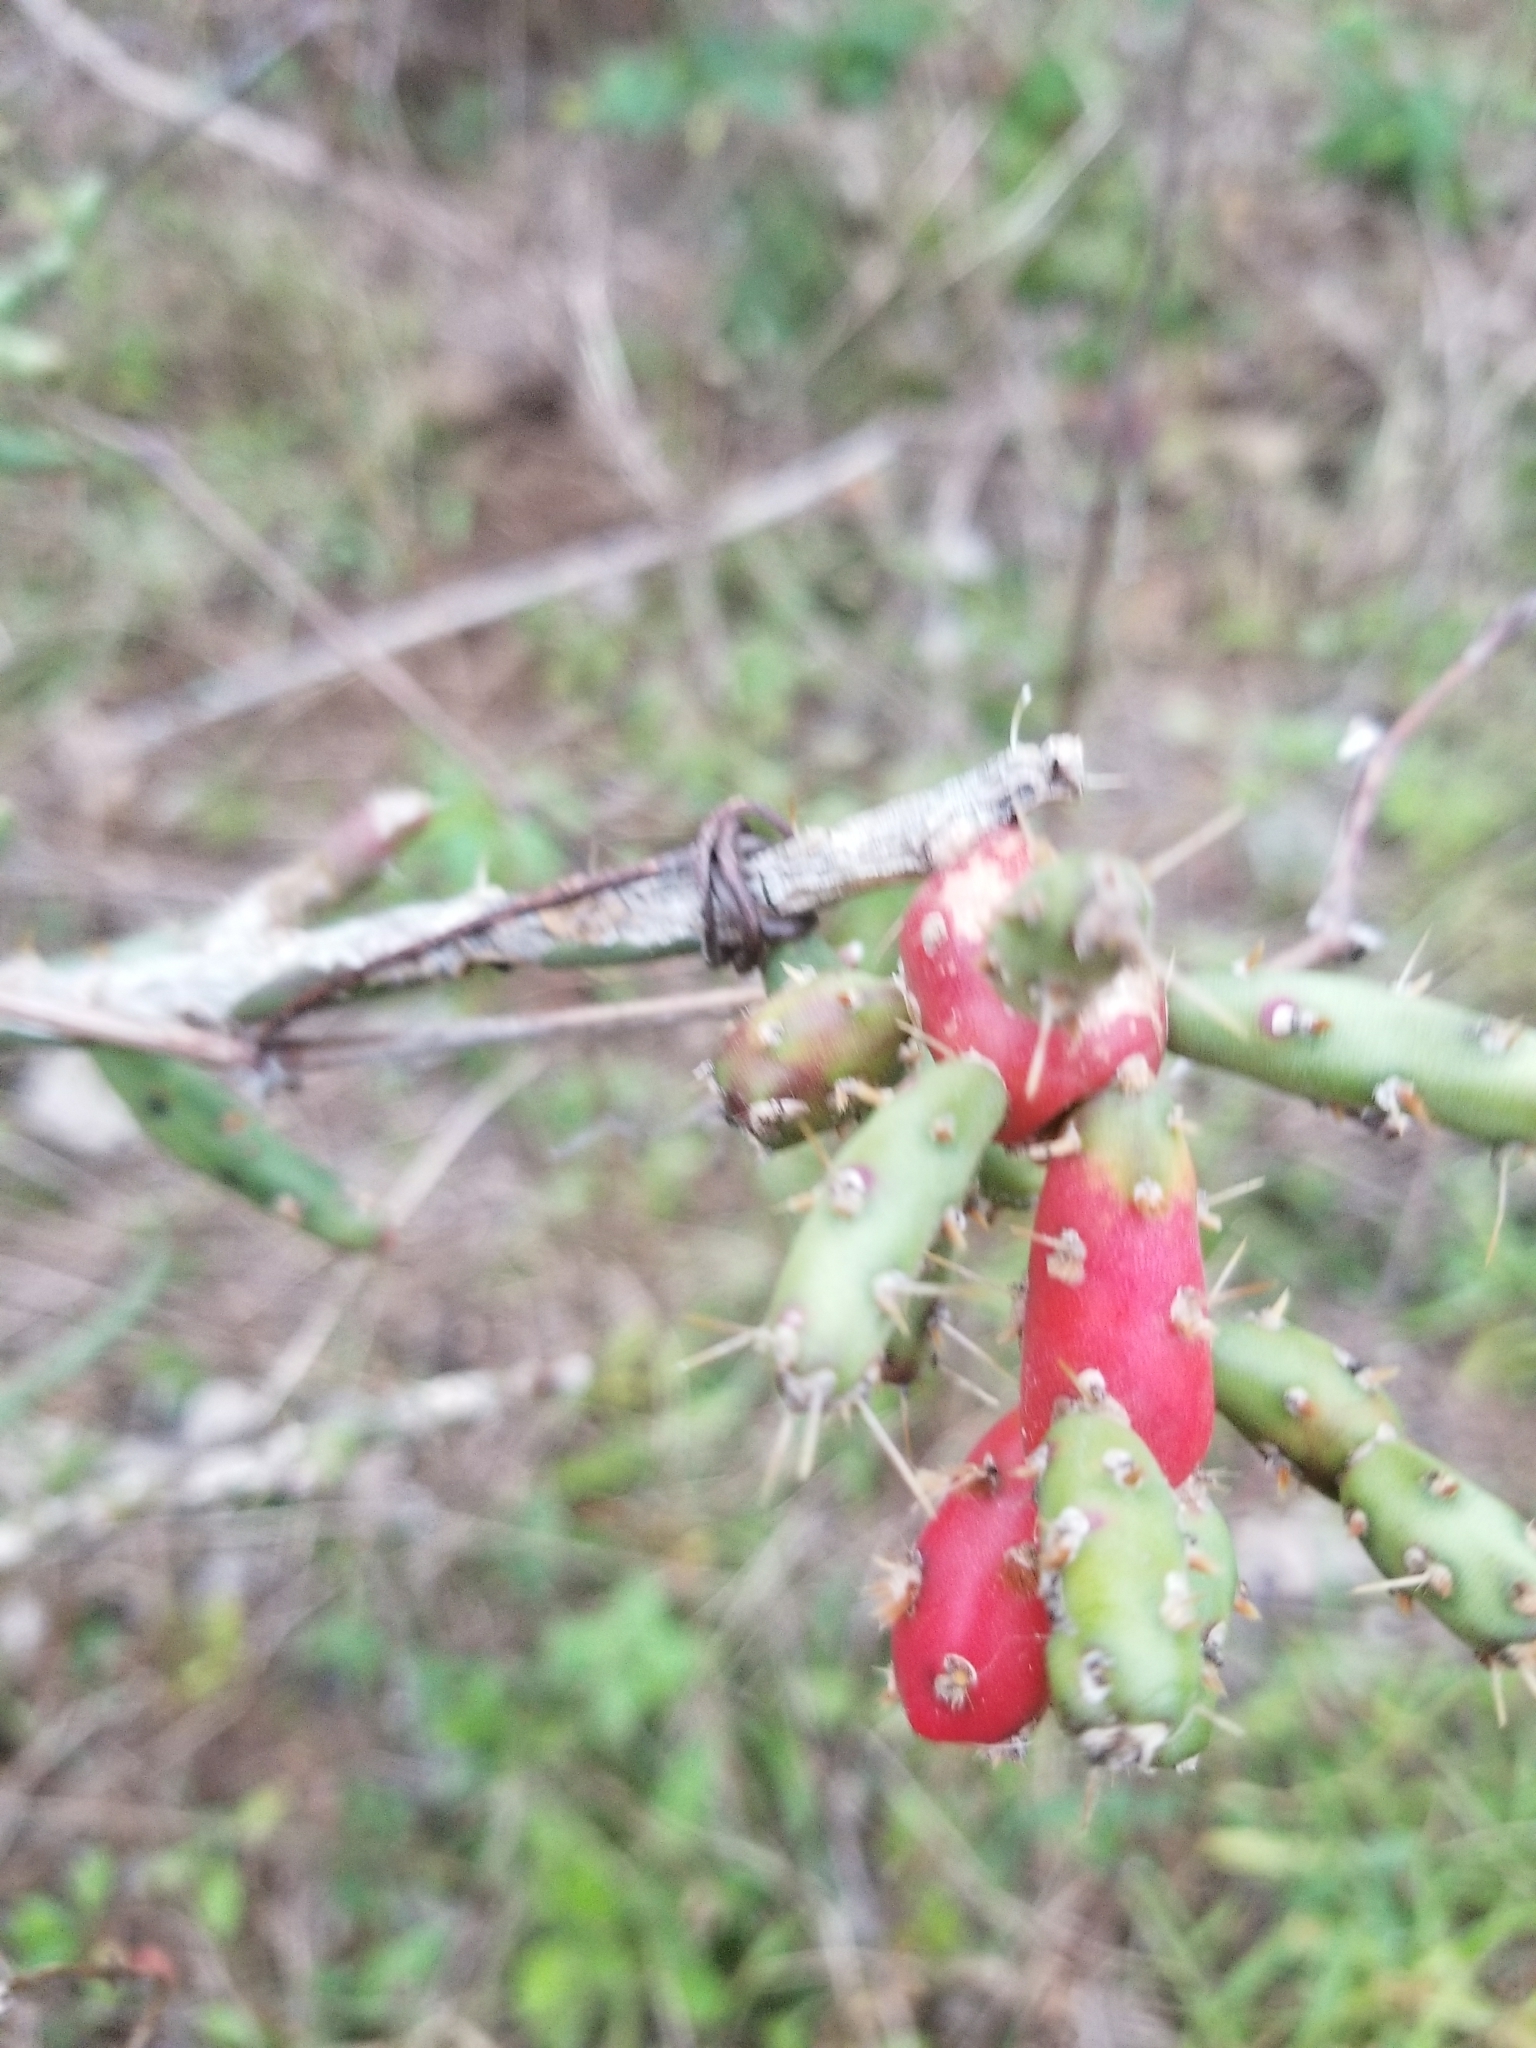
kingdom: Plantae
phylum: Tracheophyta
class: Magnoliopsida
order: Caryophyllales
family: Cactaceae
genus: Cylindropuntia
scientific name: Cylindropuntia leptocaulis
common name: Christmas cactus
